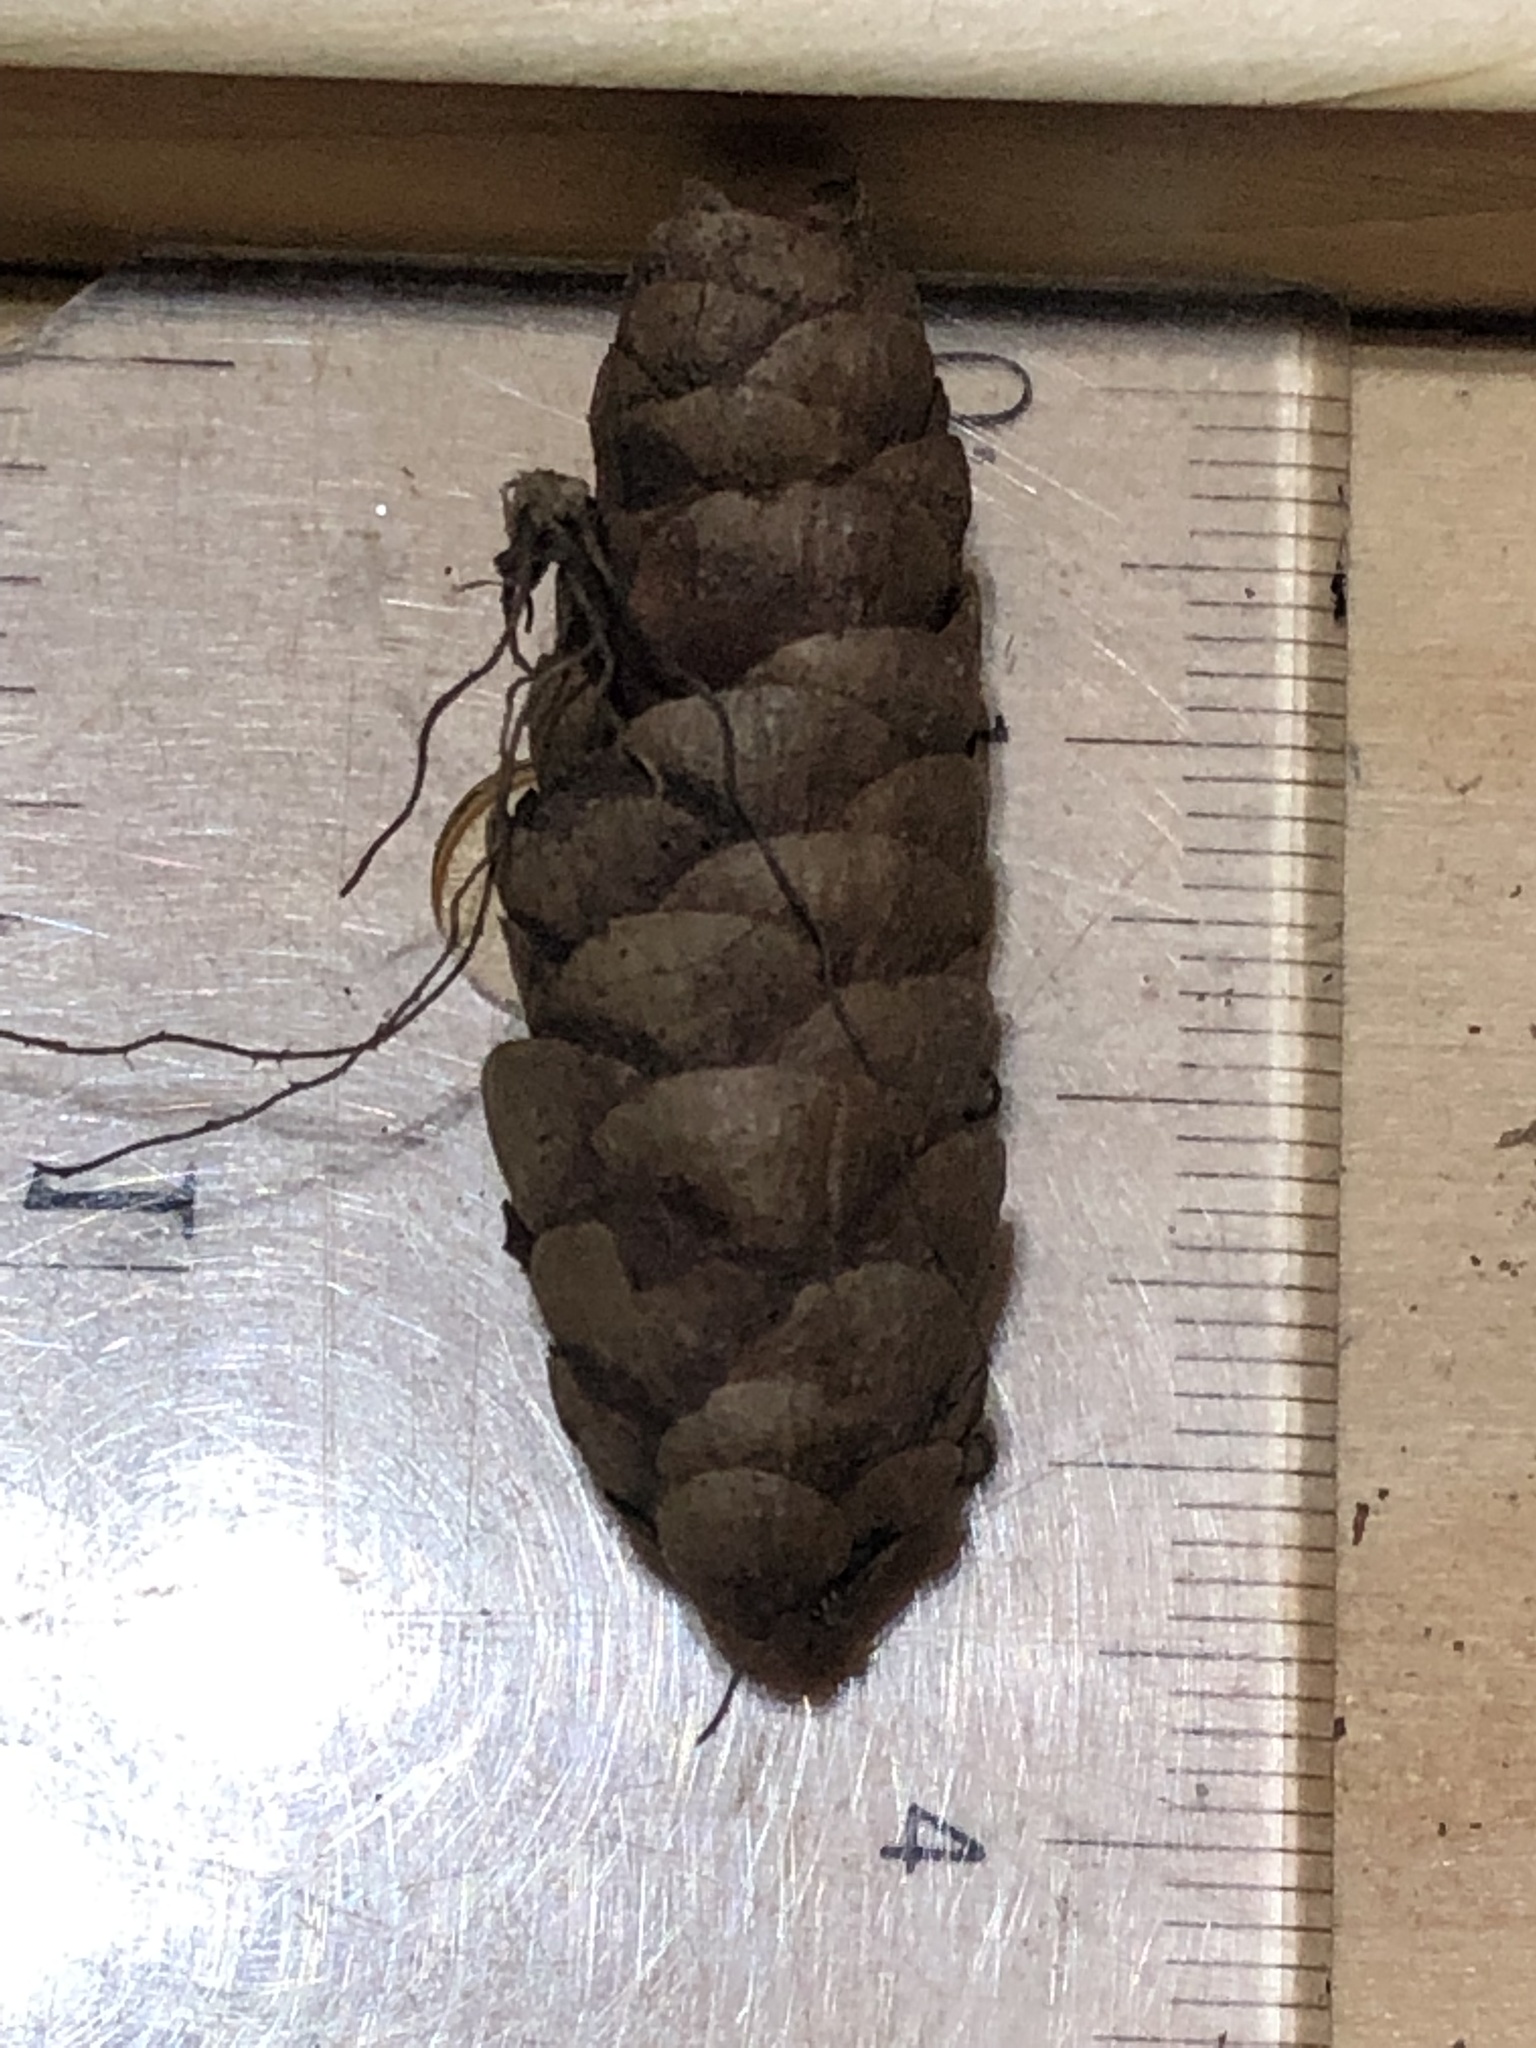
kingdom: Plantae
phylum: Tracheophyta
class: Pinopsida
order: Pinales
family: Pinaceae
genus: Picea
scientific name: Picea glauca
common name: White spruce
